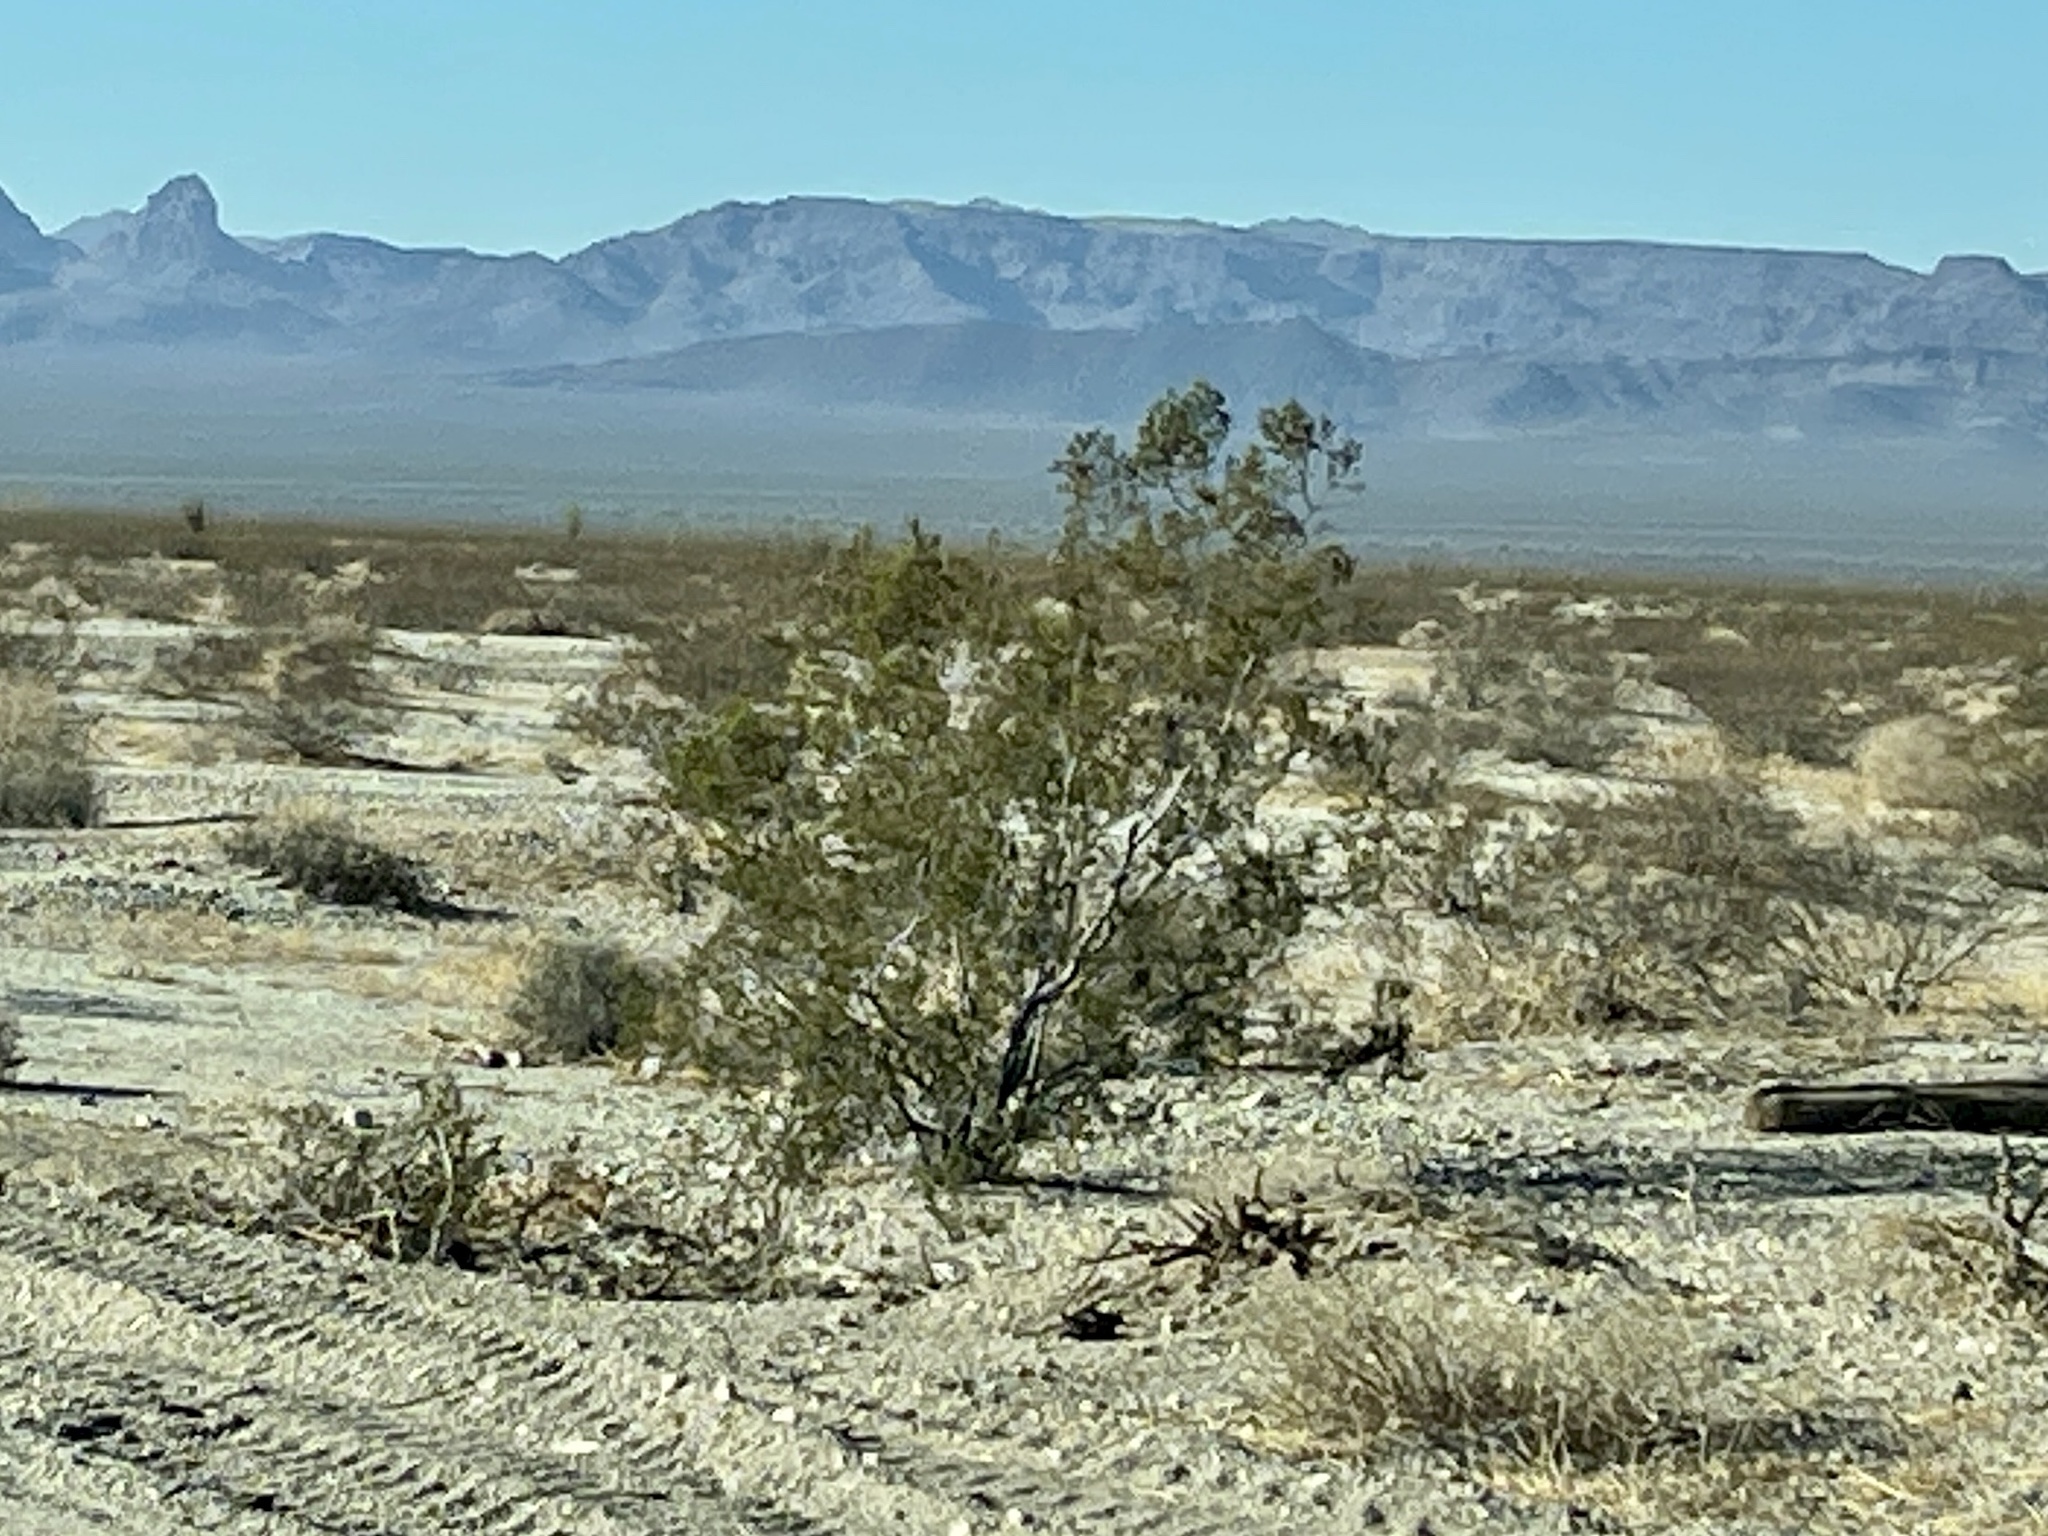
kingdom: Plantae
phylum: Tracheophyta
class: Magnoliopsida
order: Zygophyllales
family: Zygophyllaceae
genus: Larrea
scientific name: Larrea tridentata
